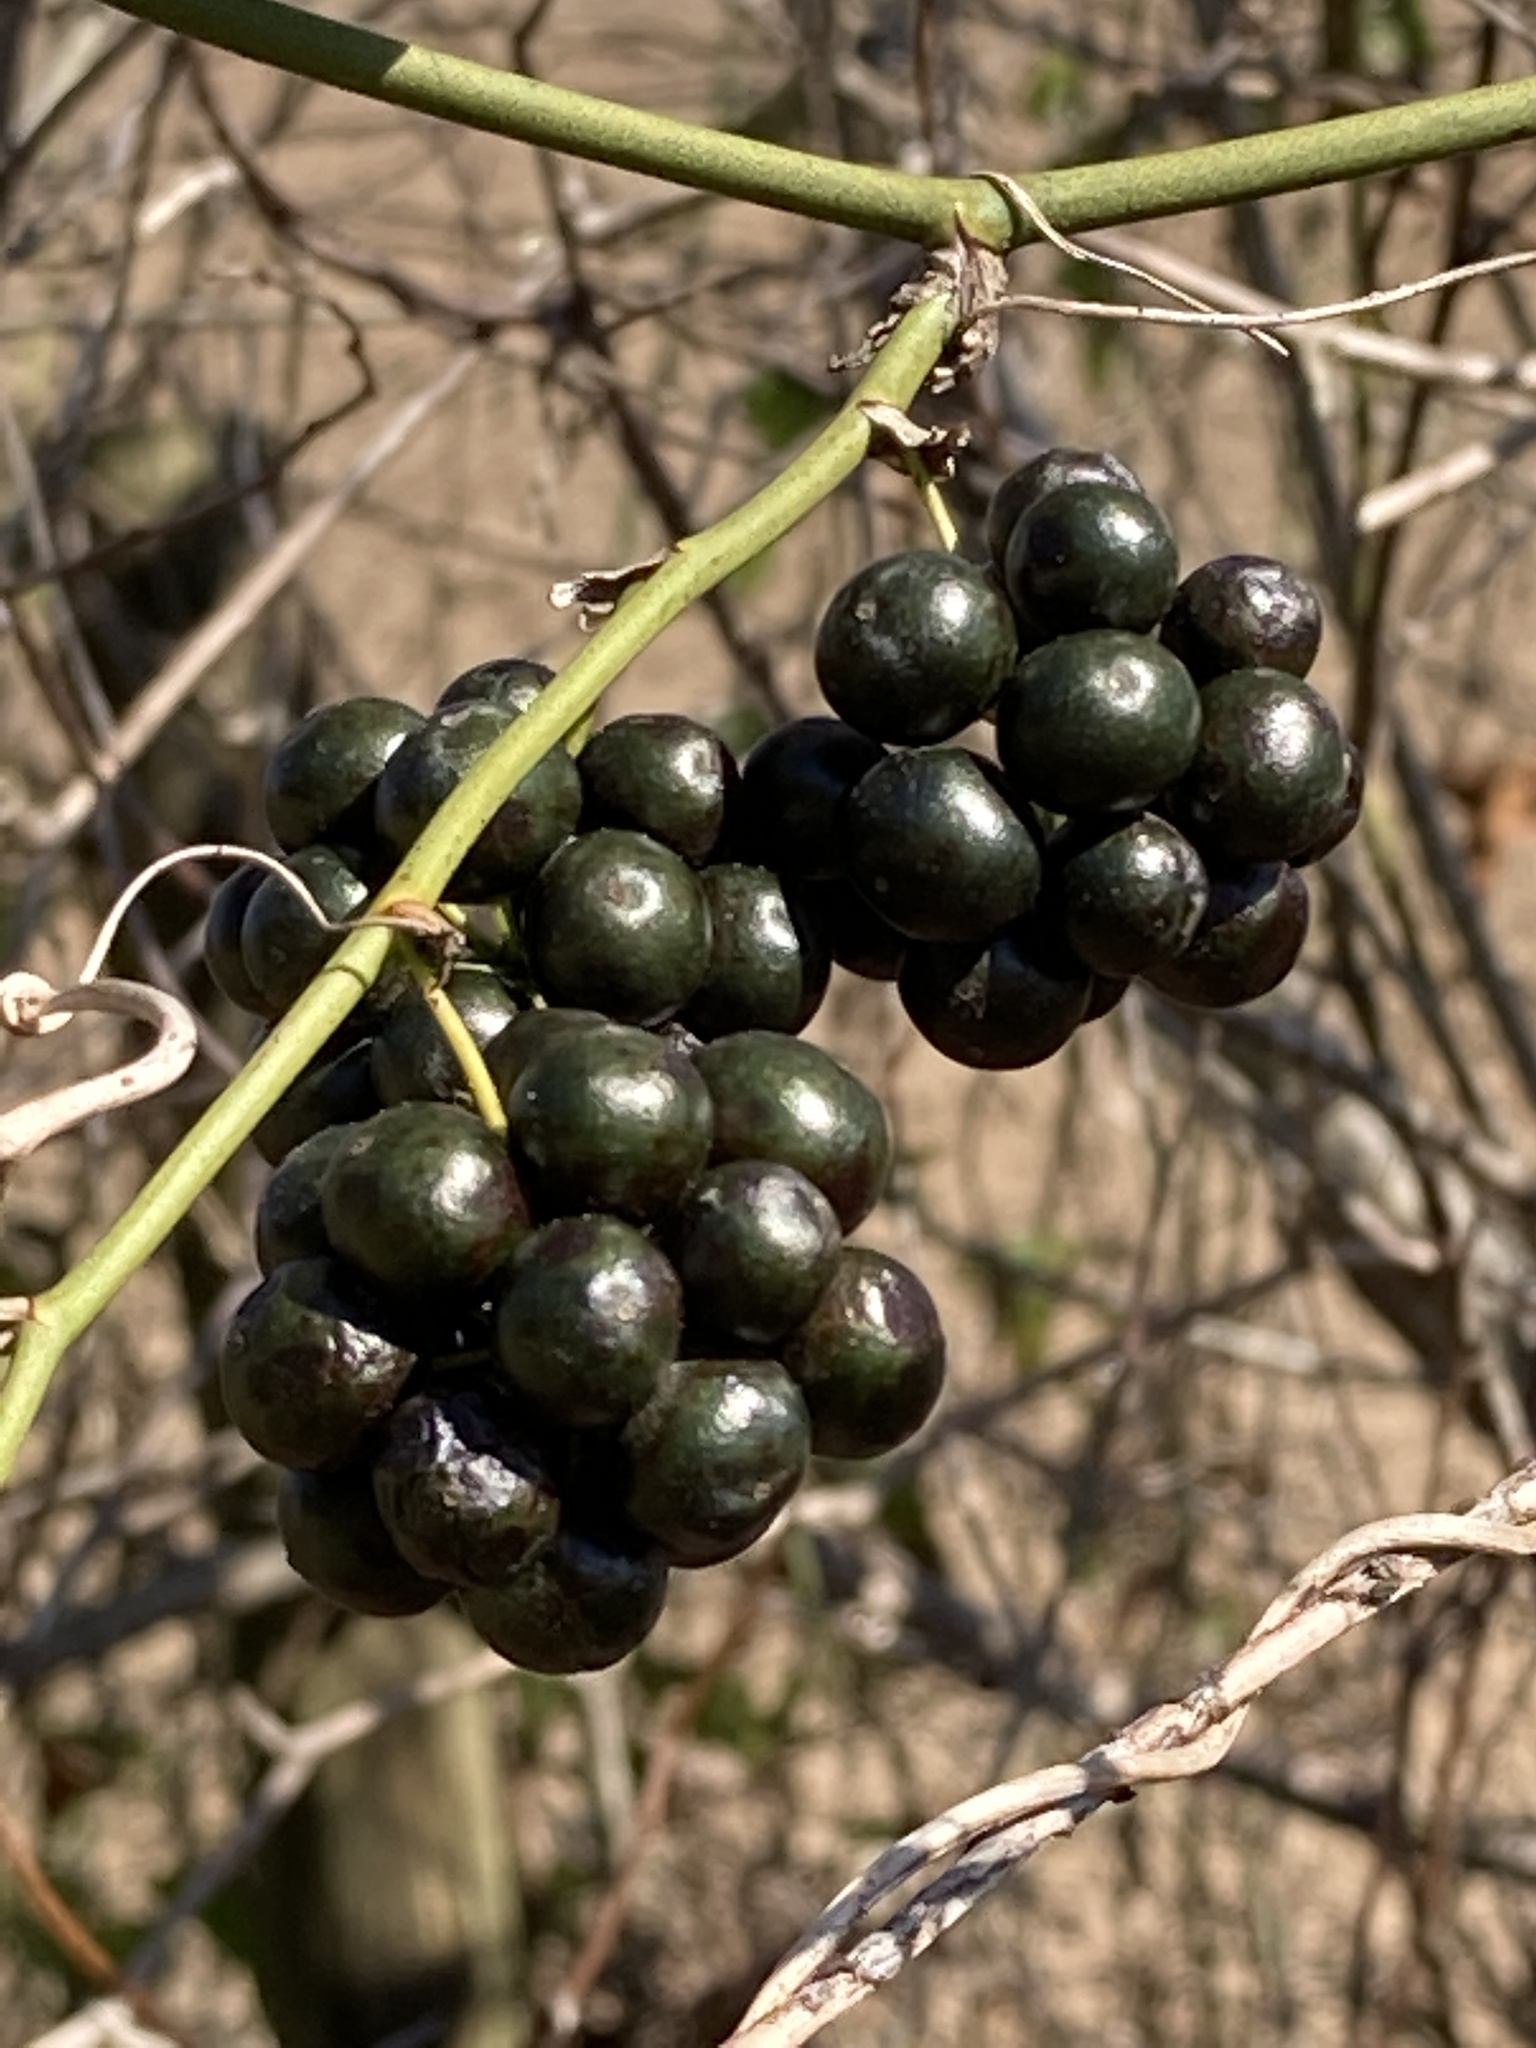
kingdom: Plantae
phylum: Tracheophyta
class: Liliopsida
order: Liliales
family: Smilacaceae
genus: Smilax
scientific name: Smilax bona-nox
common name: Catbrier
